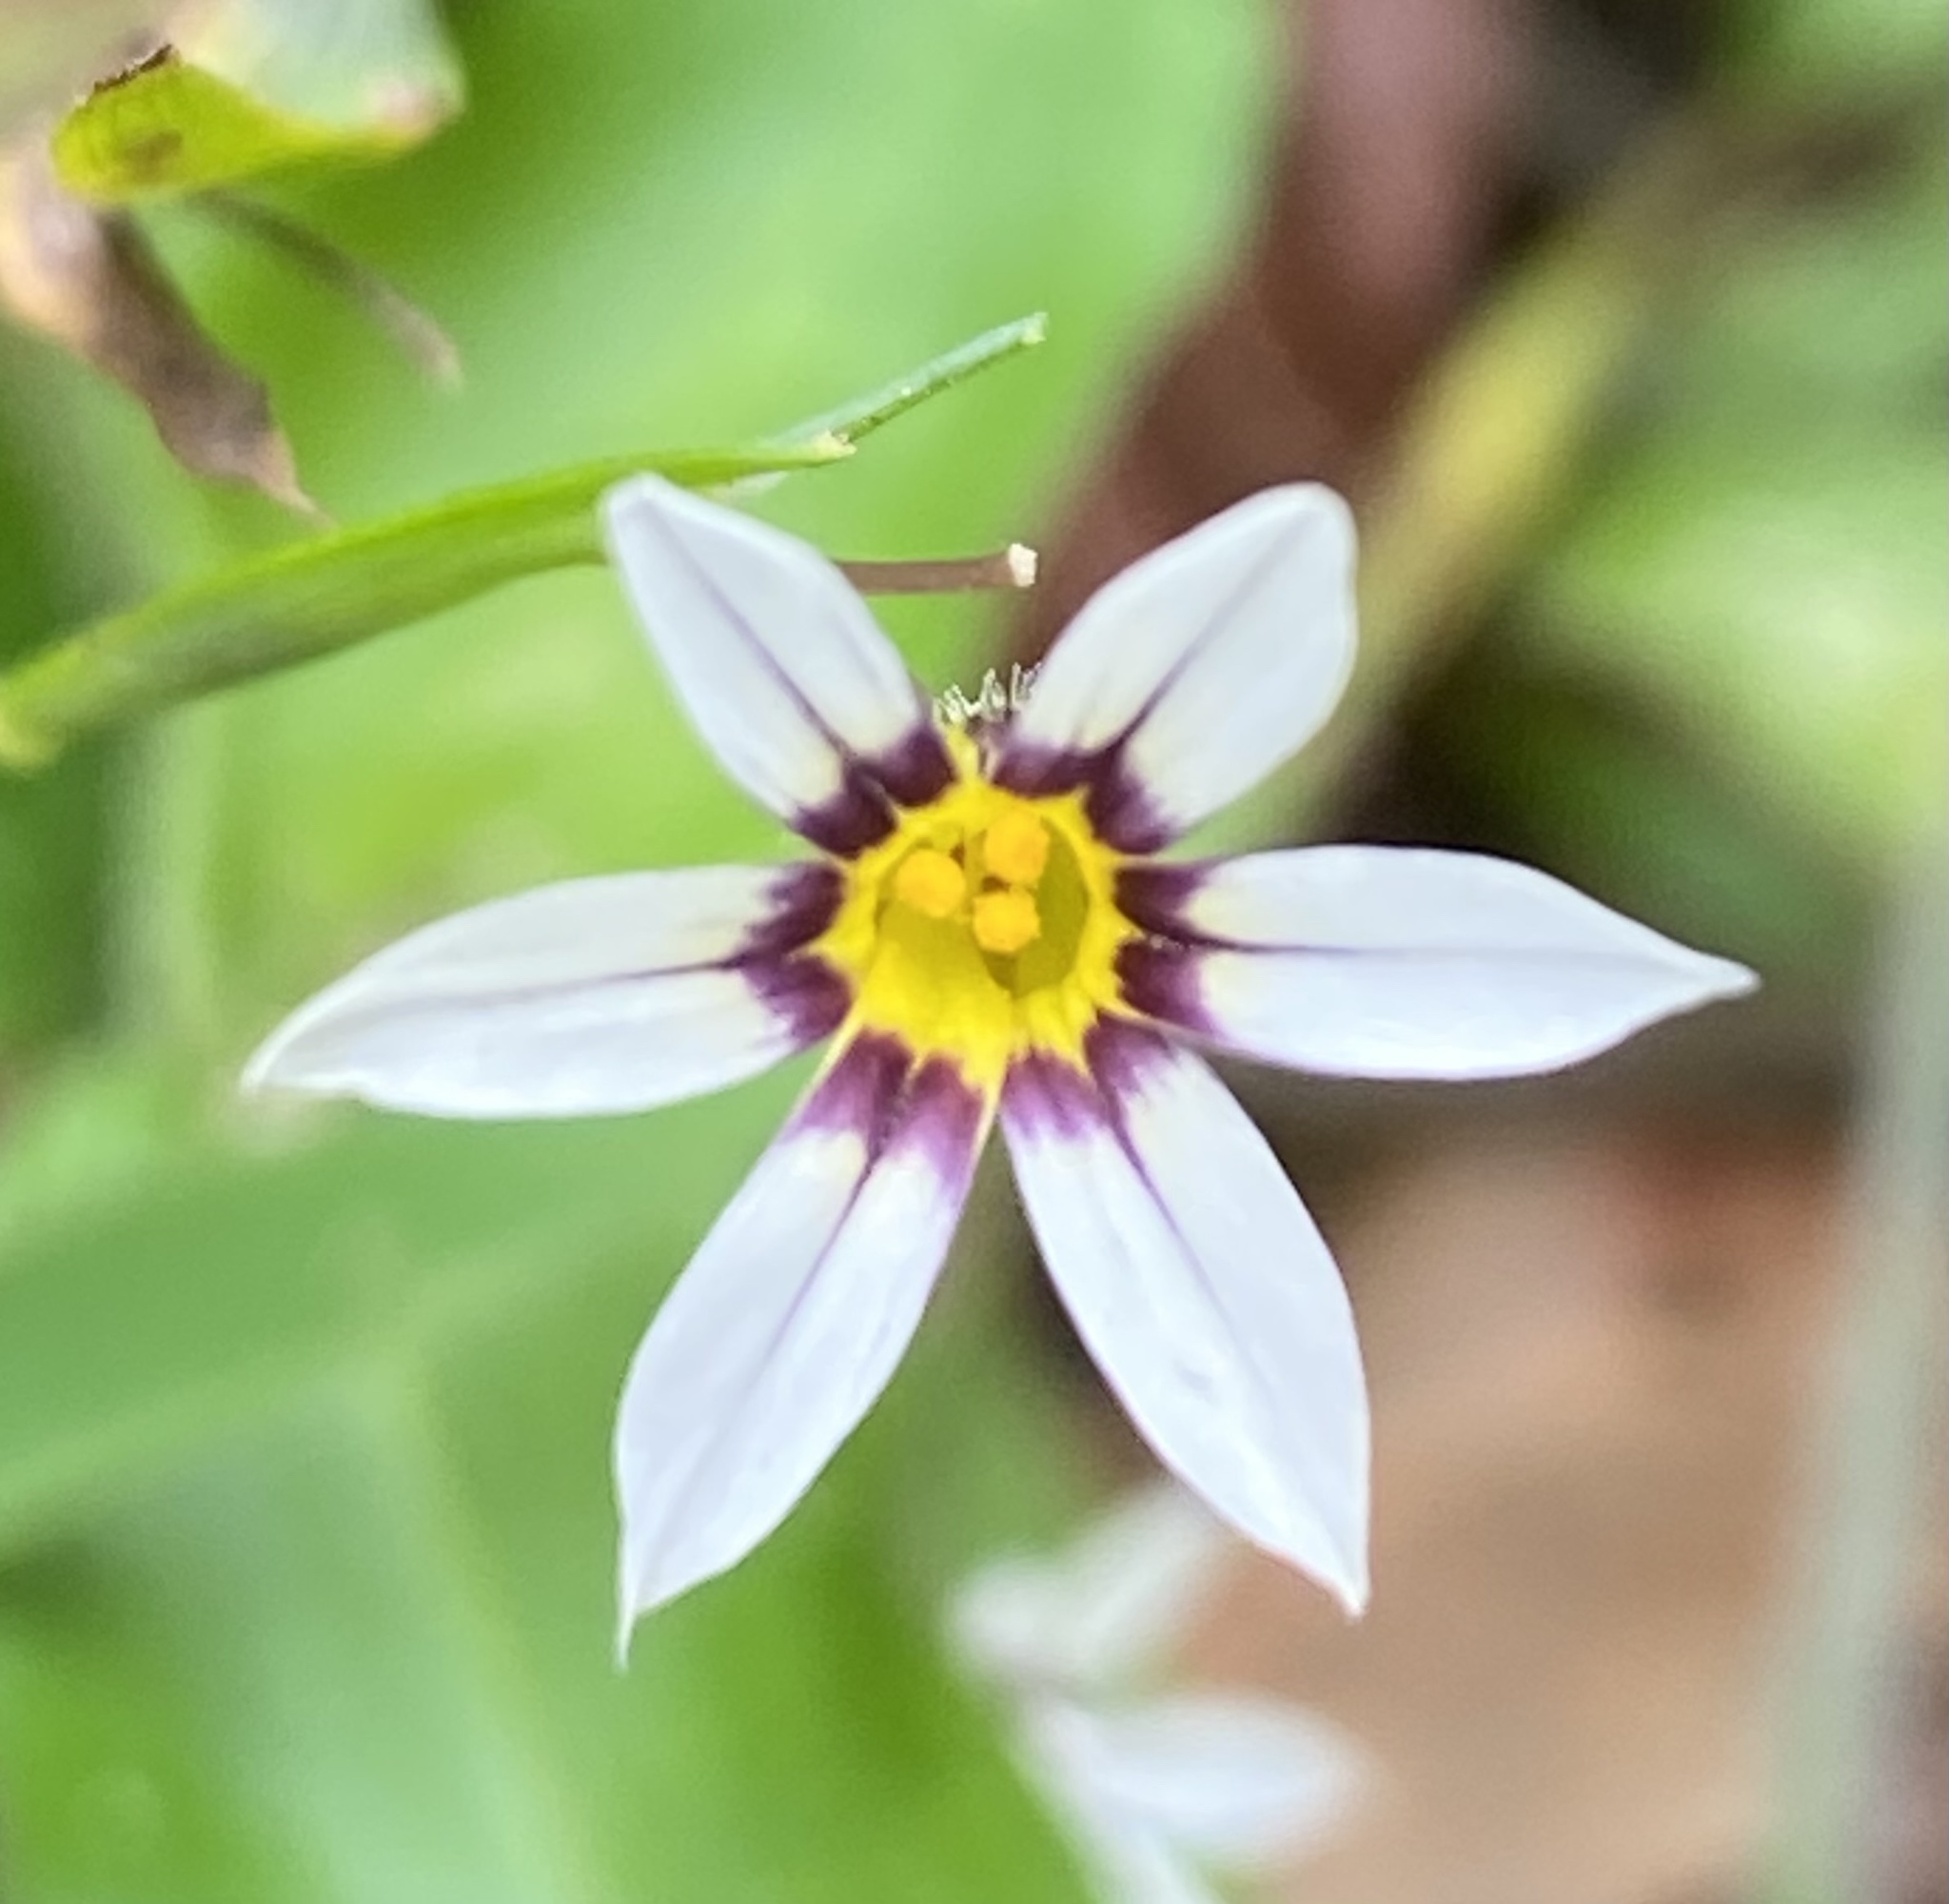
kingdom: Plantae
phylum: Tracheophyta
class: Liliopsida
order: Asparagales
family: Iridaceae
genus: Sisyrinchium
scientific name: Sisyrinchium micranthum
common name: Bermuda pigroot
